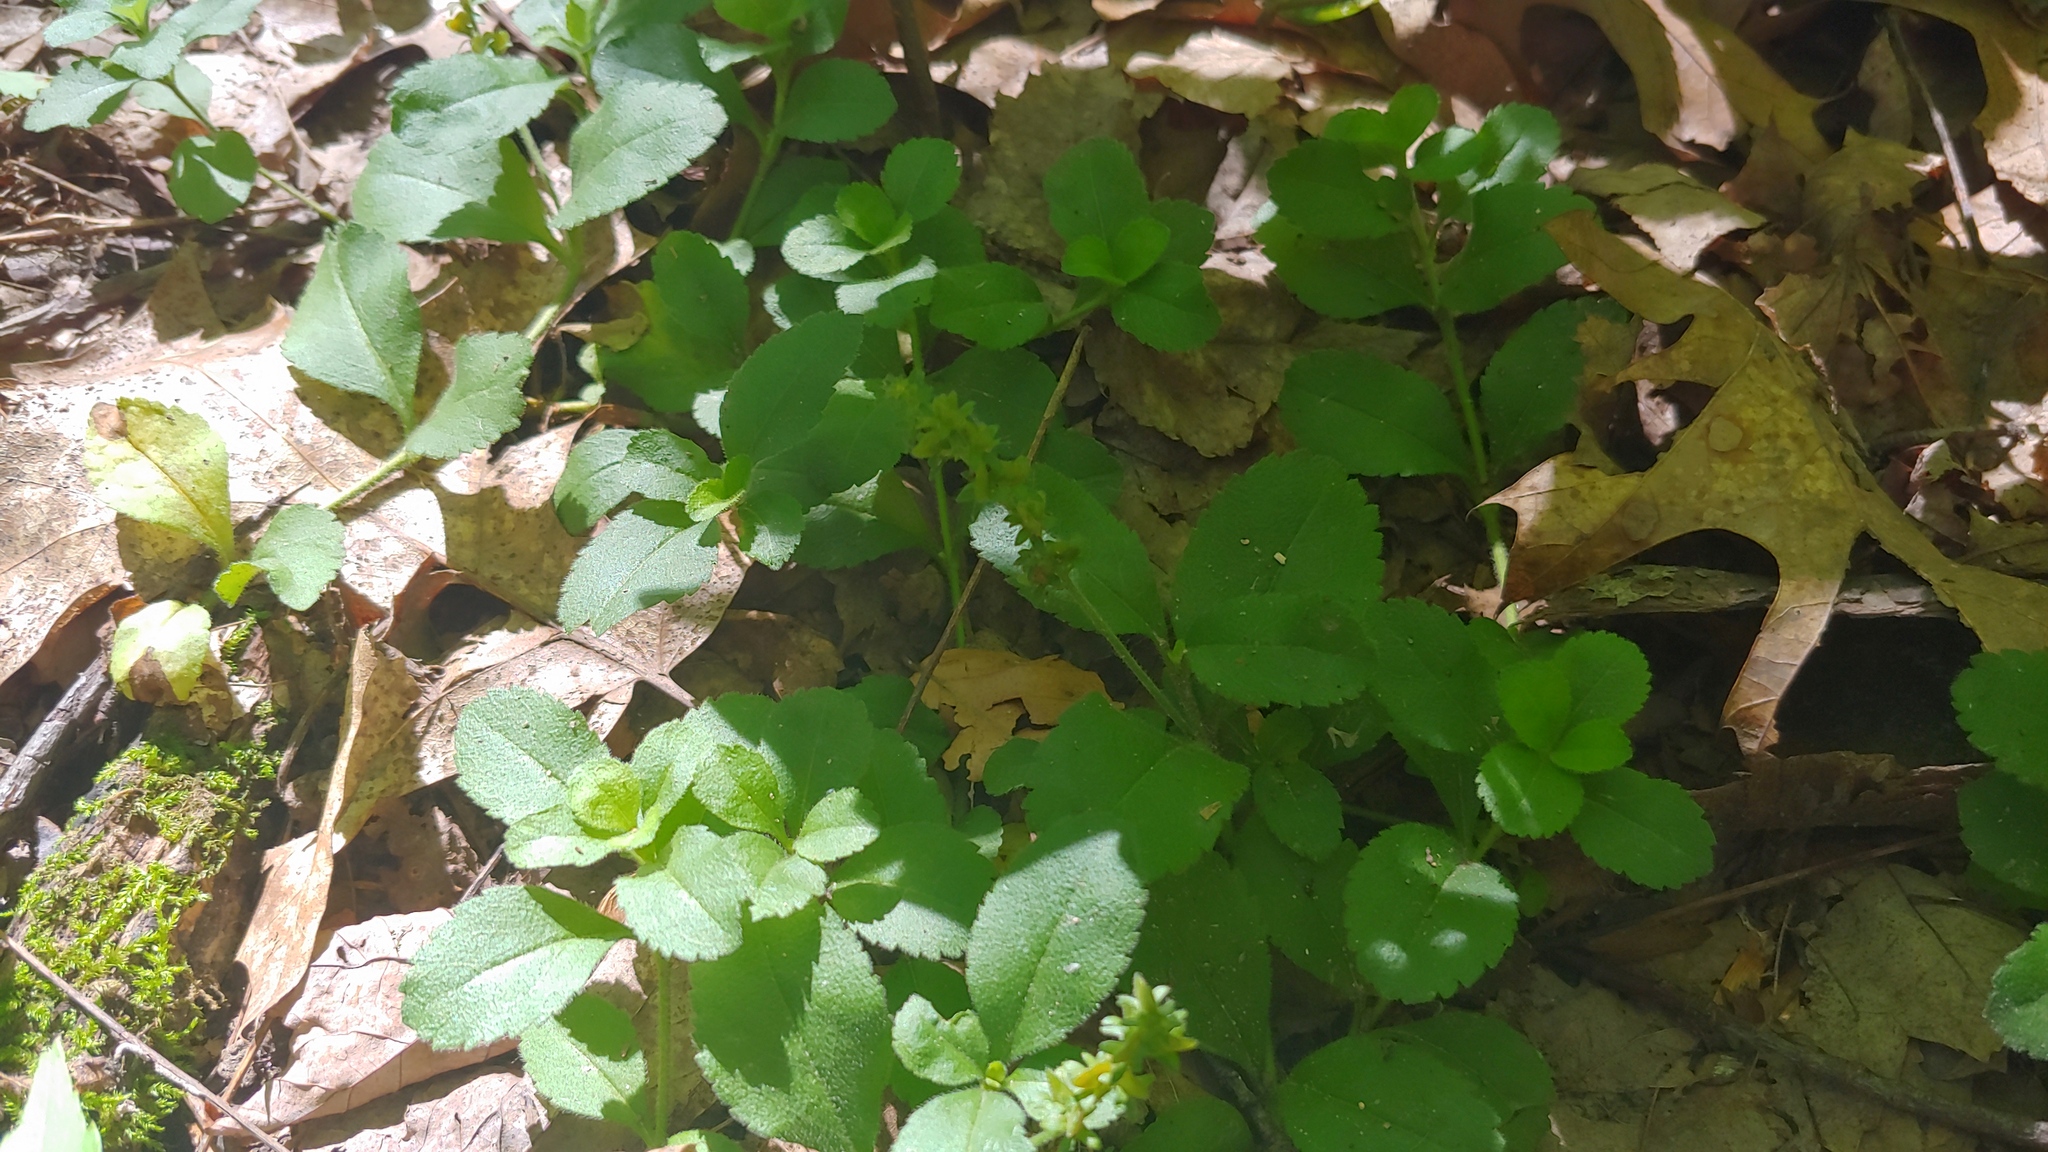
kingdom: Plantae
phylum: Tracheophyta
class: Magnoliopsida
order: Lamiales
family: Plantaginaceae
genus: Veronica
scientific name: Veronica officinalis
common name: Common speedwell
